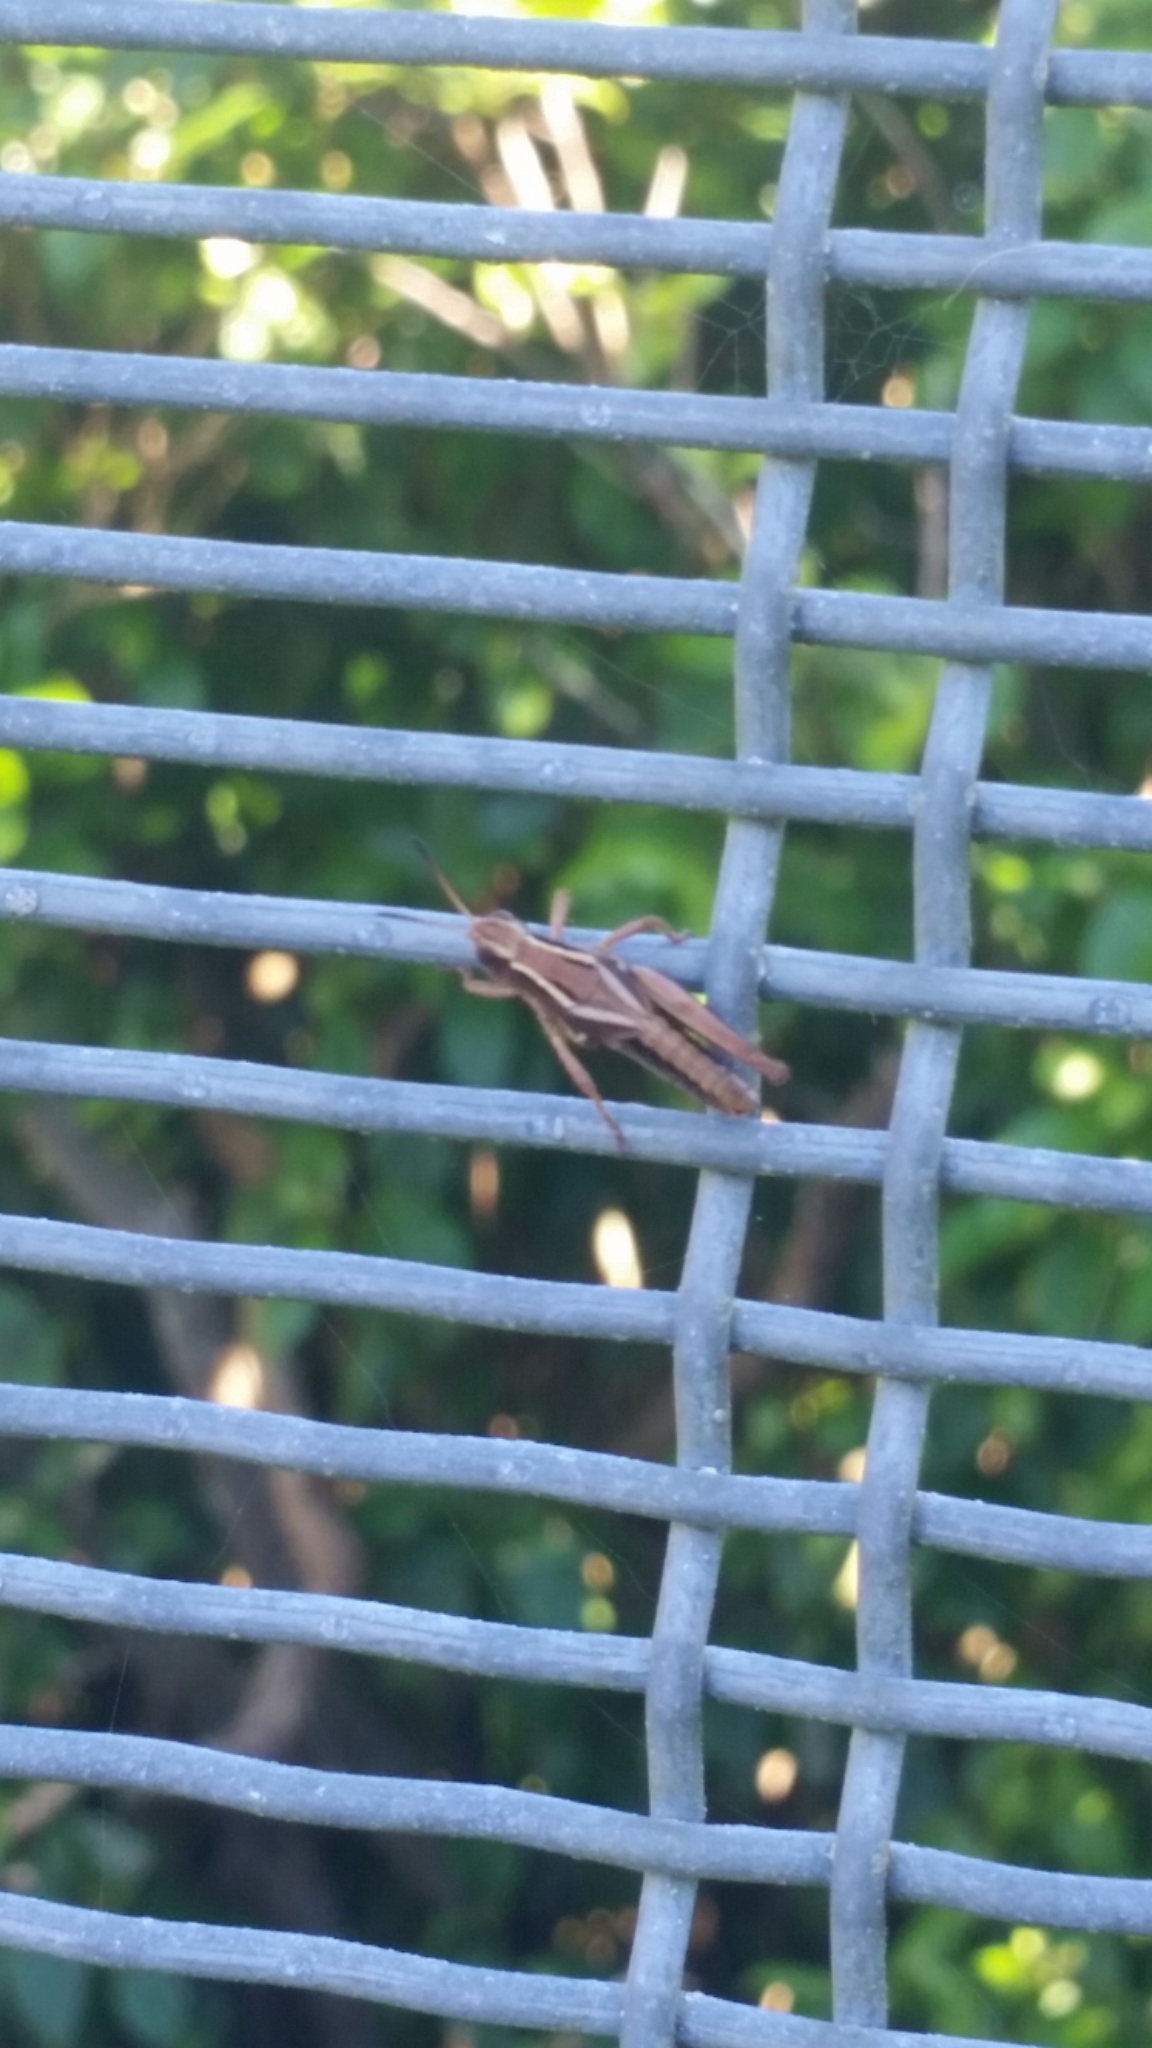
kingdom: Animalia
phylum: Arthropoda
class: Insecta
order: Orthoptera
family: Acrididae
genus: Phaulacridium
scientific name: Phaulacridium marginale
